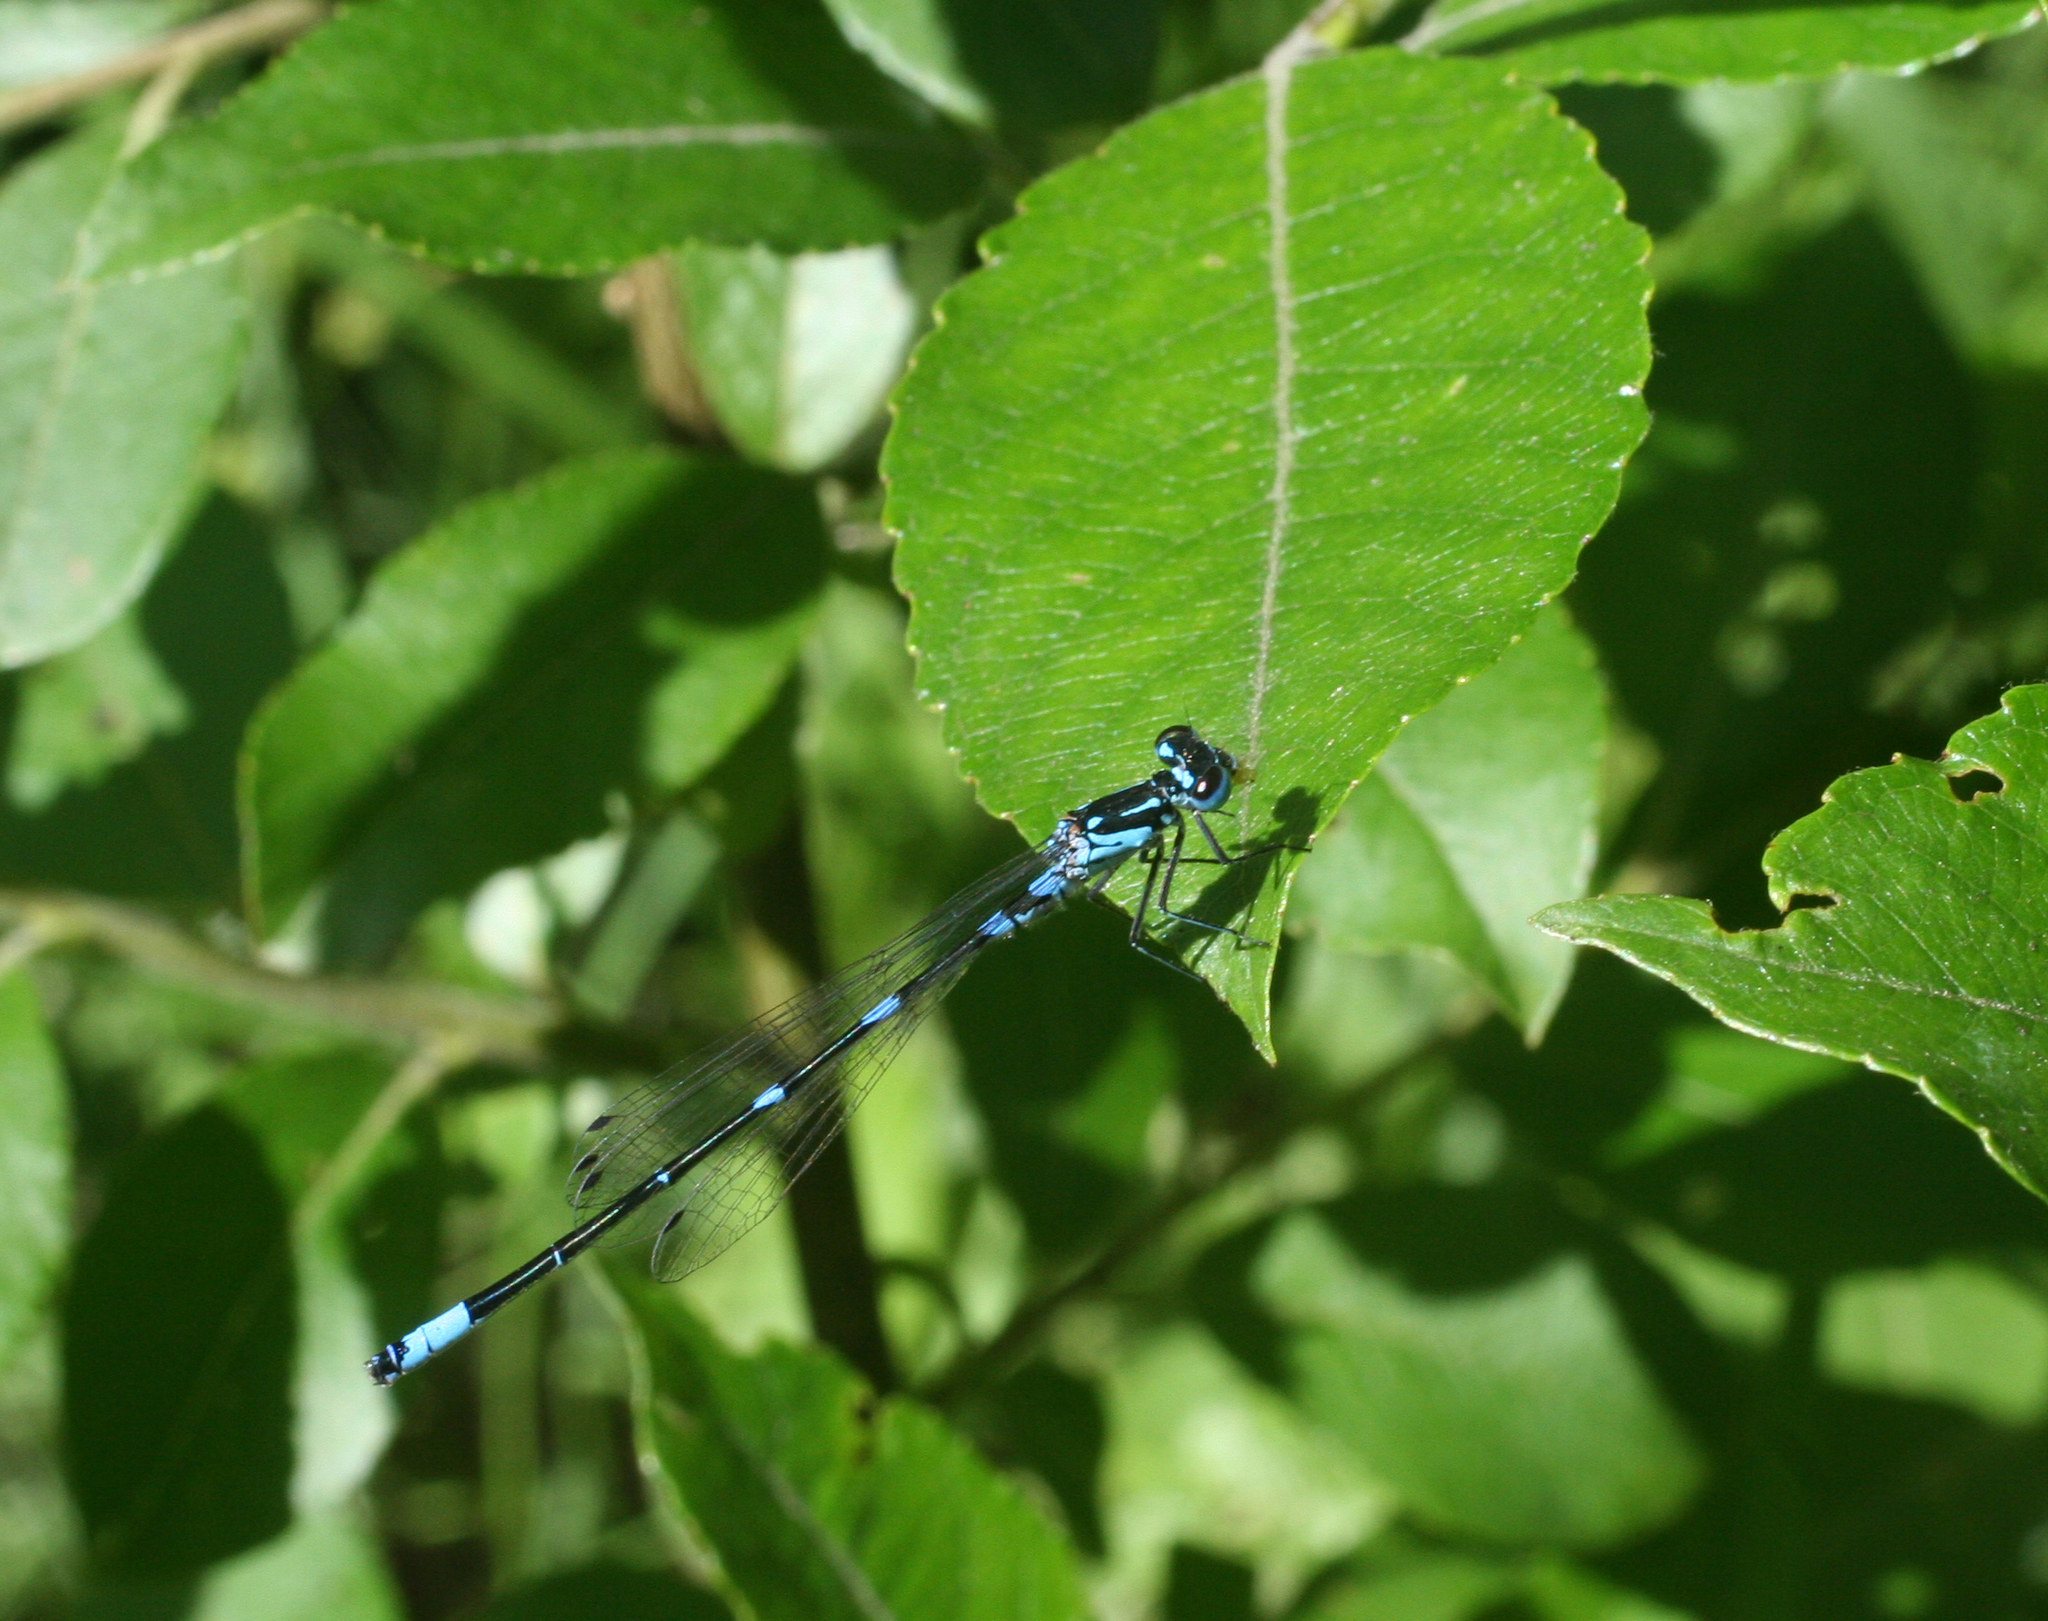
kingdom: Animalia
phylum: Arthropoda
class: Insecta
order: Odonata
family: Coenagrionidae
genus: Coenagrion
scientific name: Coenagrion pulchellum
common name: Variable bluet
